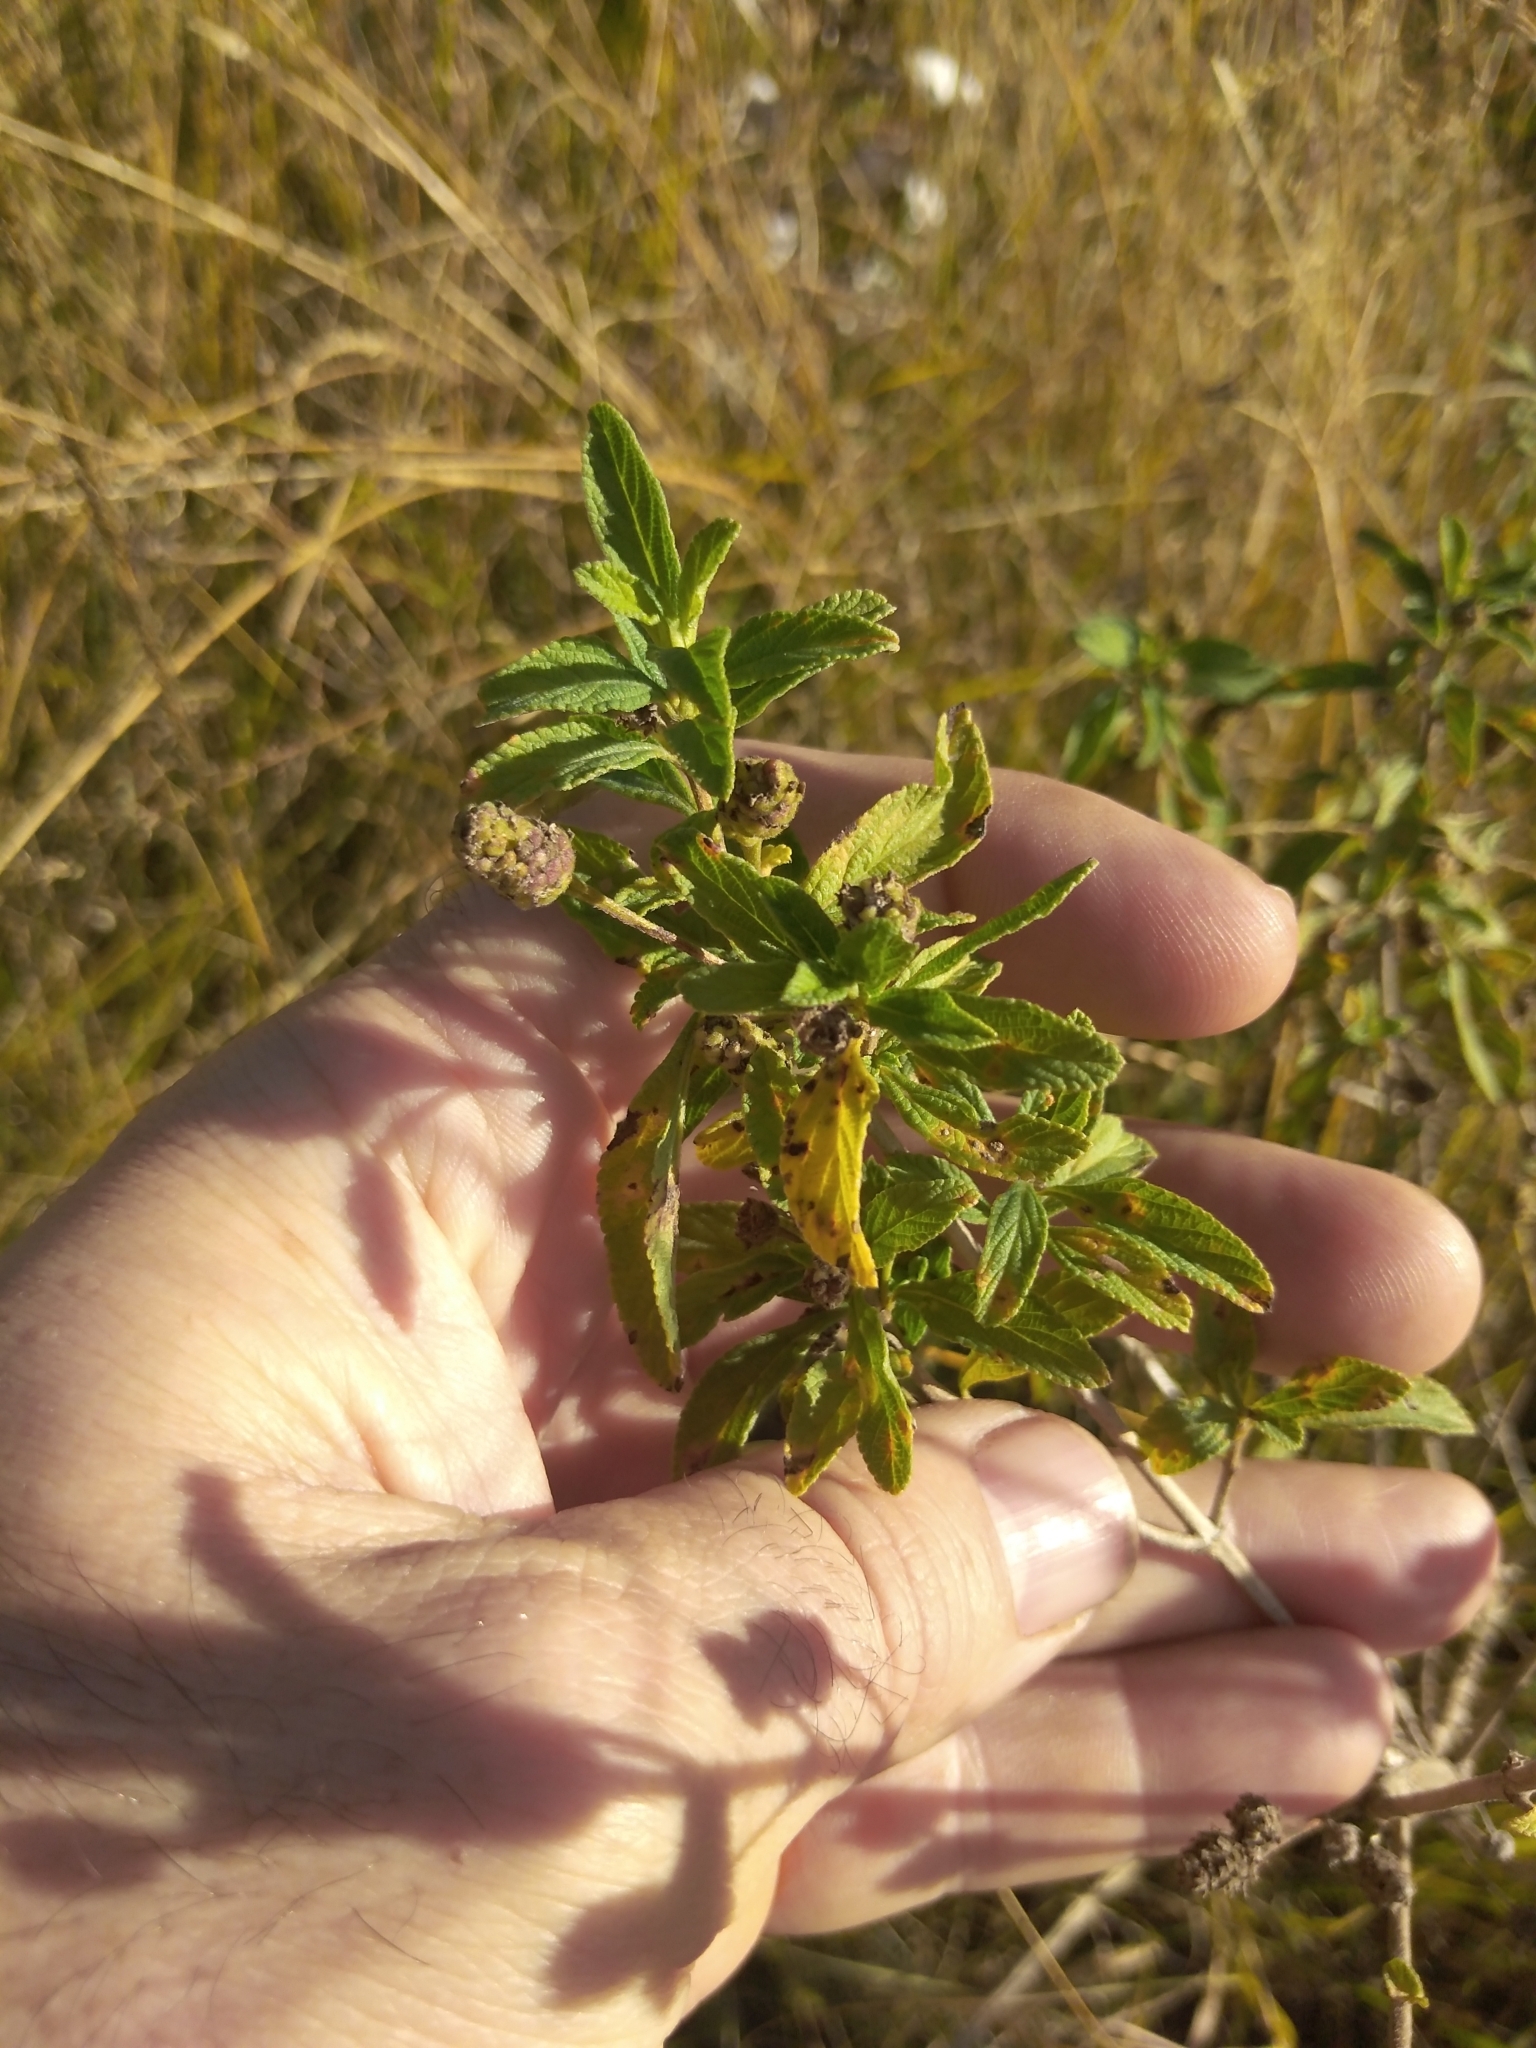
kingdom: Plantae
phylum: Tracheophyta
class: Magnoliopsida
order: Lamiales
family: Verbenaceae
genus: Lippia
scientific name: Lippia javanica
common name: Lemonbush
